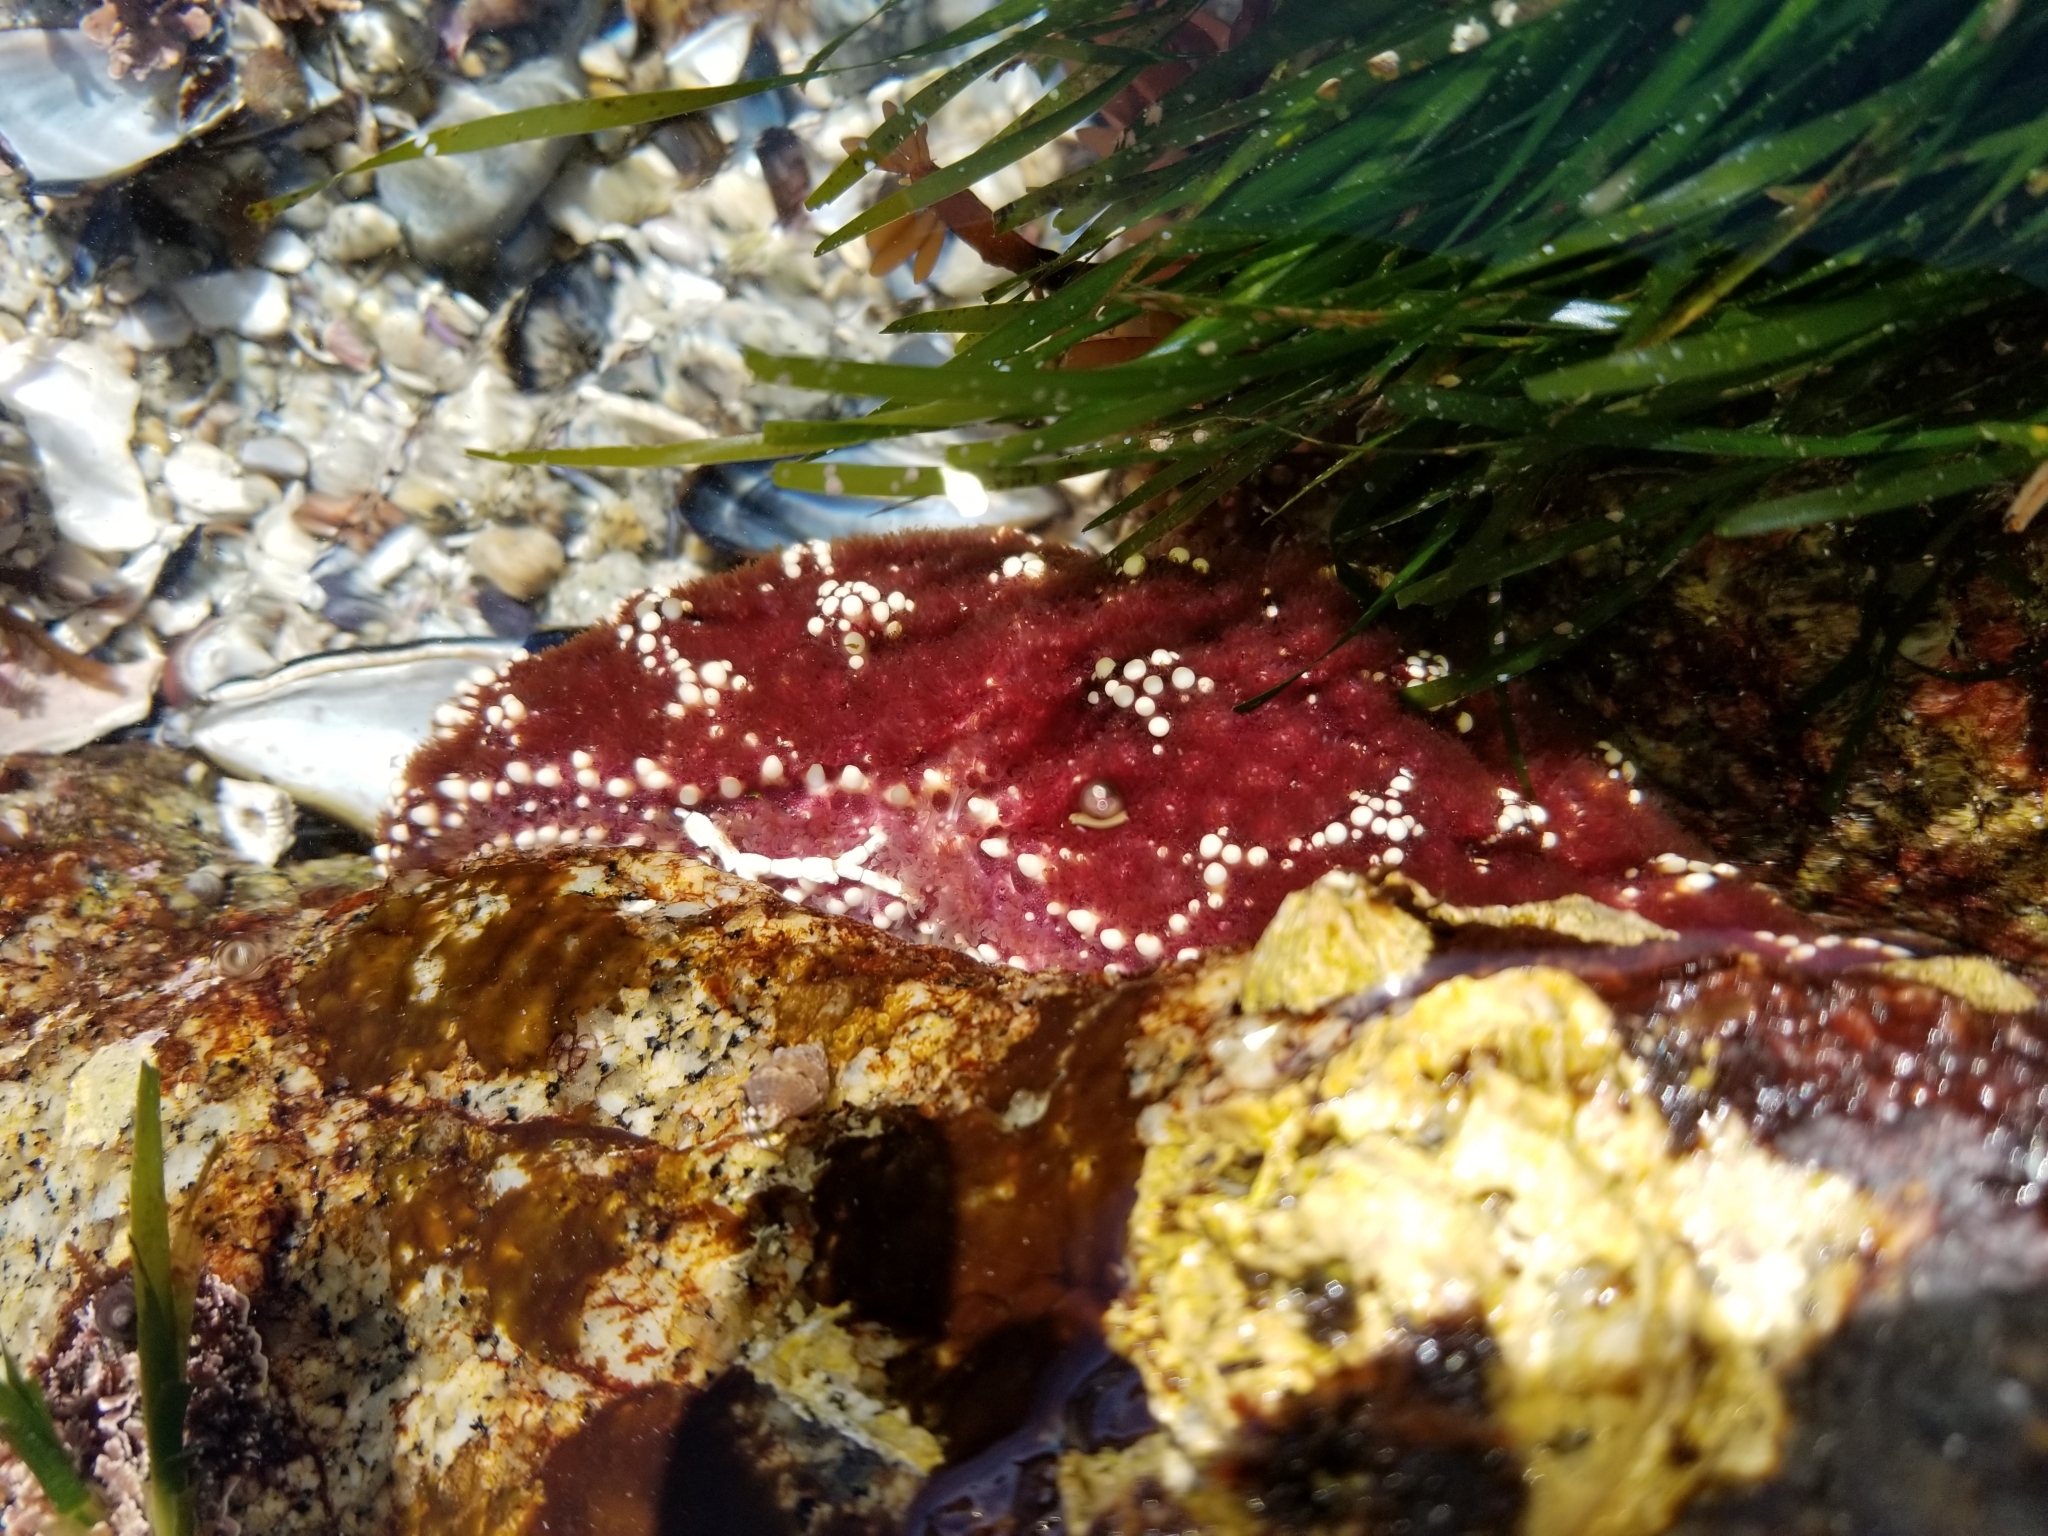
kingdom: Animalia
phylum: Echinodermata
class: Asteroidea
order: Forcipulatida
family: Asteriidae
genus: Pisaster
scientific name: Pisaster ochraceus
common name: Ochre stars
